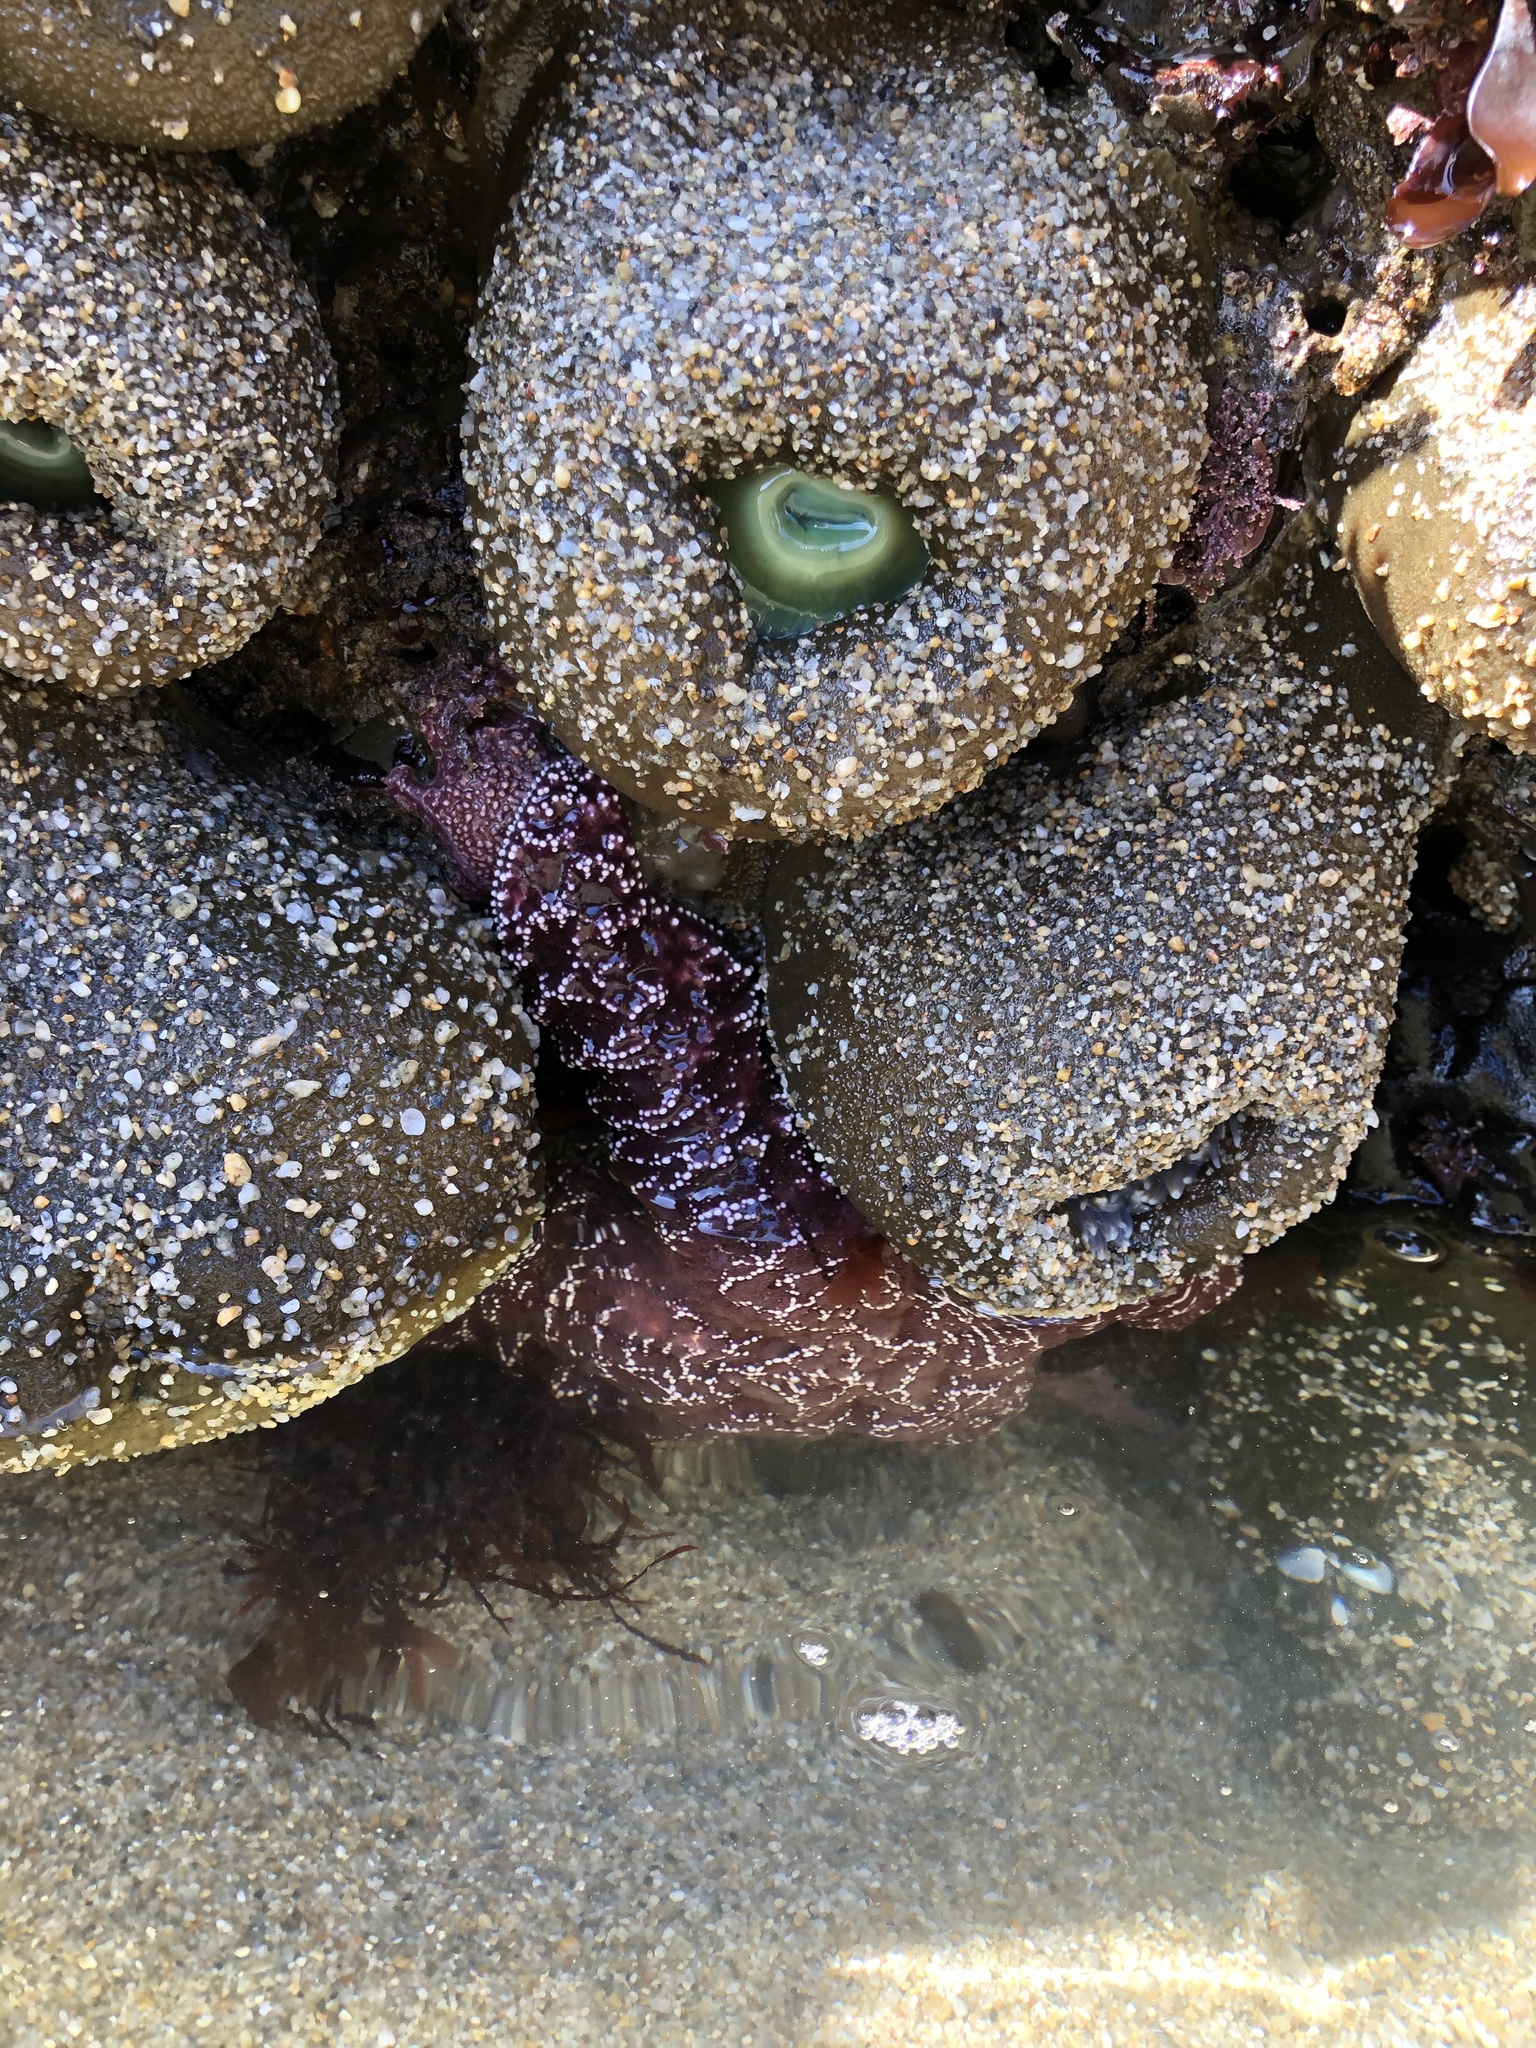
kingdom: Animalia
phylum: Cnidaria
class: Anthozoa
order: Actiniaria
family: Actiniidae
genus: Anthopleura
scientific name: Anthopleura xanthogrammica
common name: Giant green anemone
